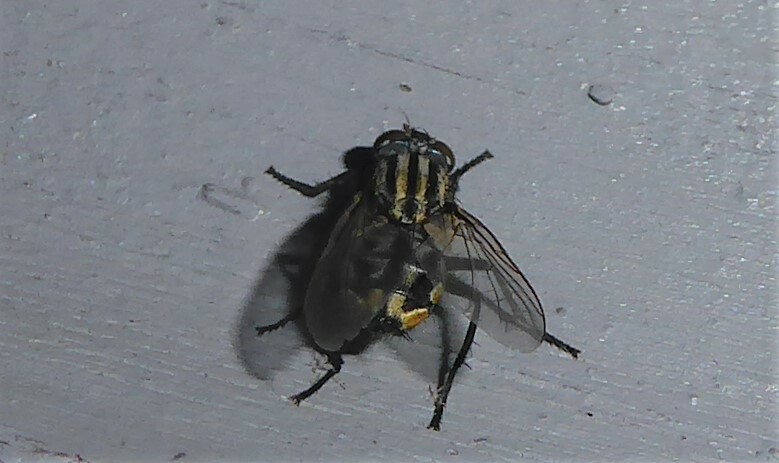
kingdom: Animalia
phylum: Arthropoda
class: Insecta
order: Diptera
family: Sarcophagidae
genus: Oxysarcodexia
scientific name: Oxysarcodexia varia
